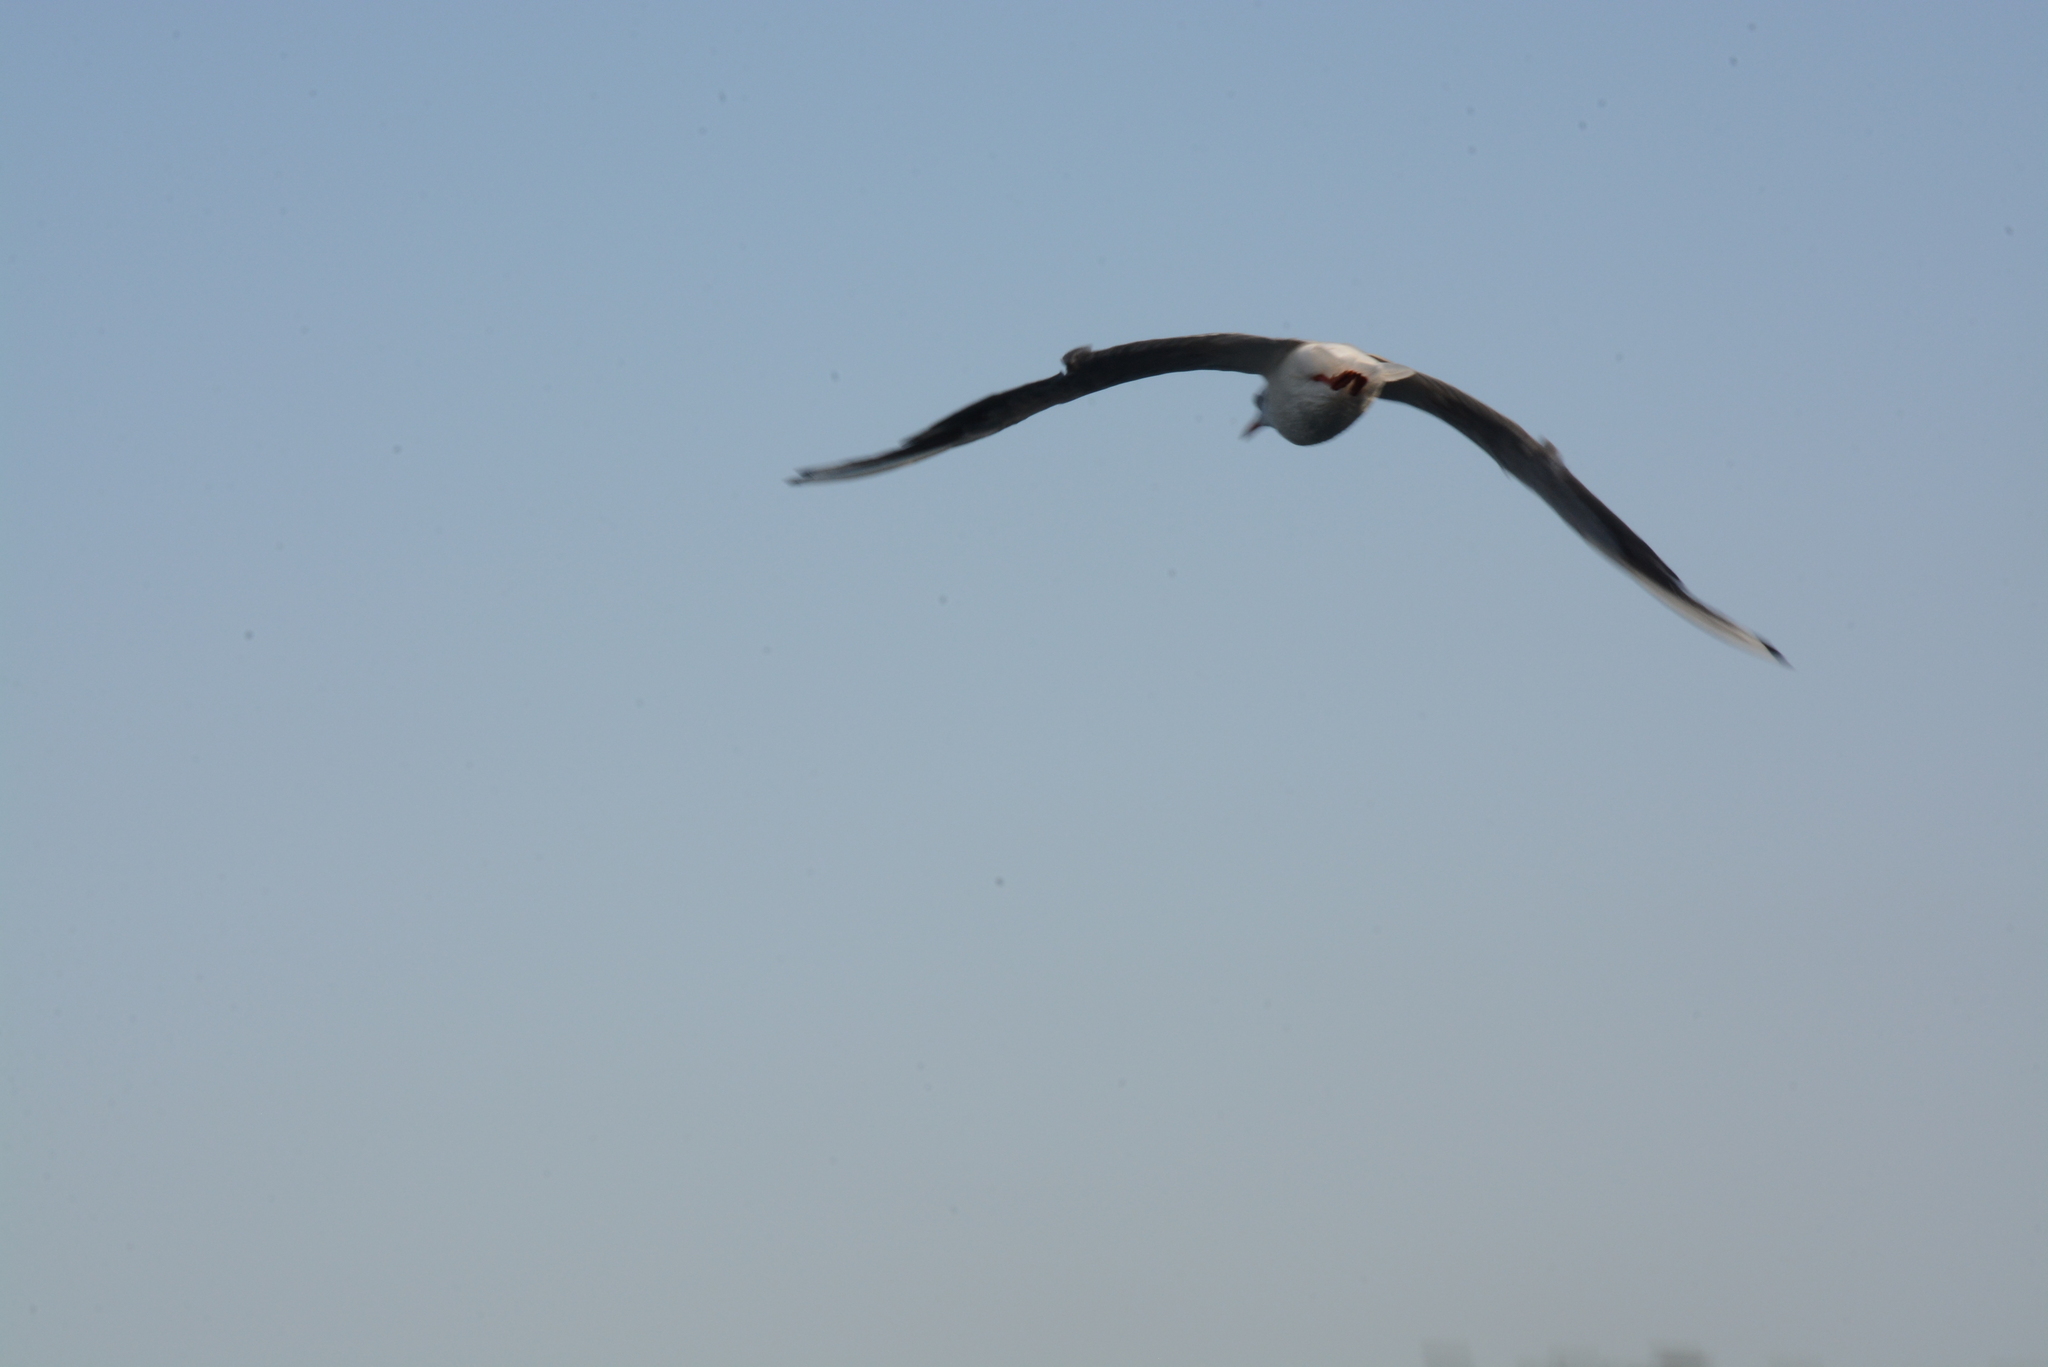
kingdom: Animalia
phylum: Chordata
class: Aves
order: Charadriiformes
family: Laridae
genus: Chroicocephalus
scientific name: Chroicocephalus ridibundus
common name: Black-headed gull
